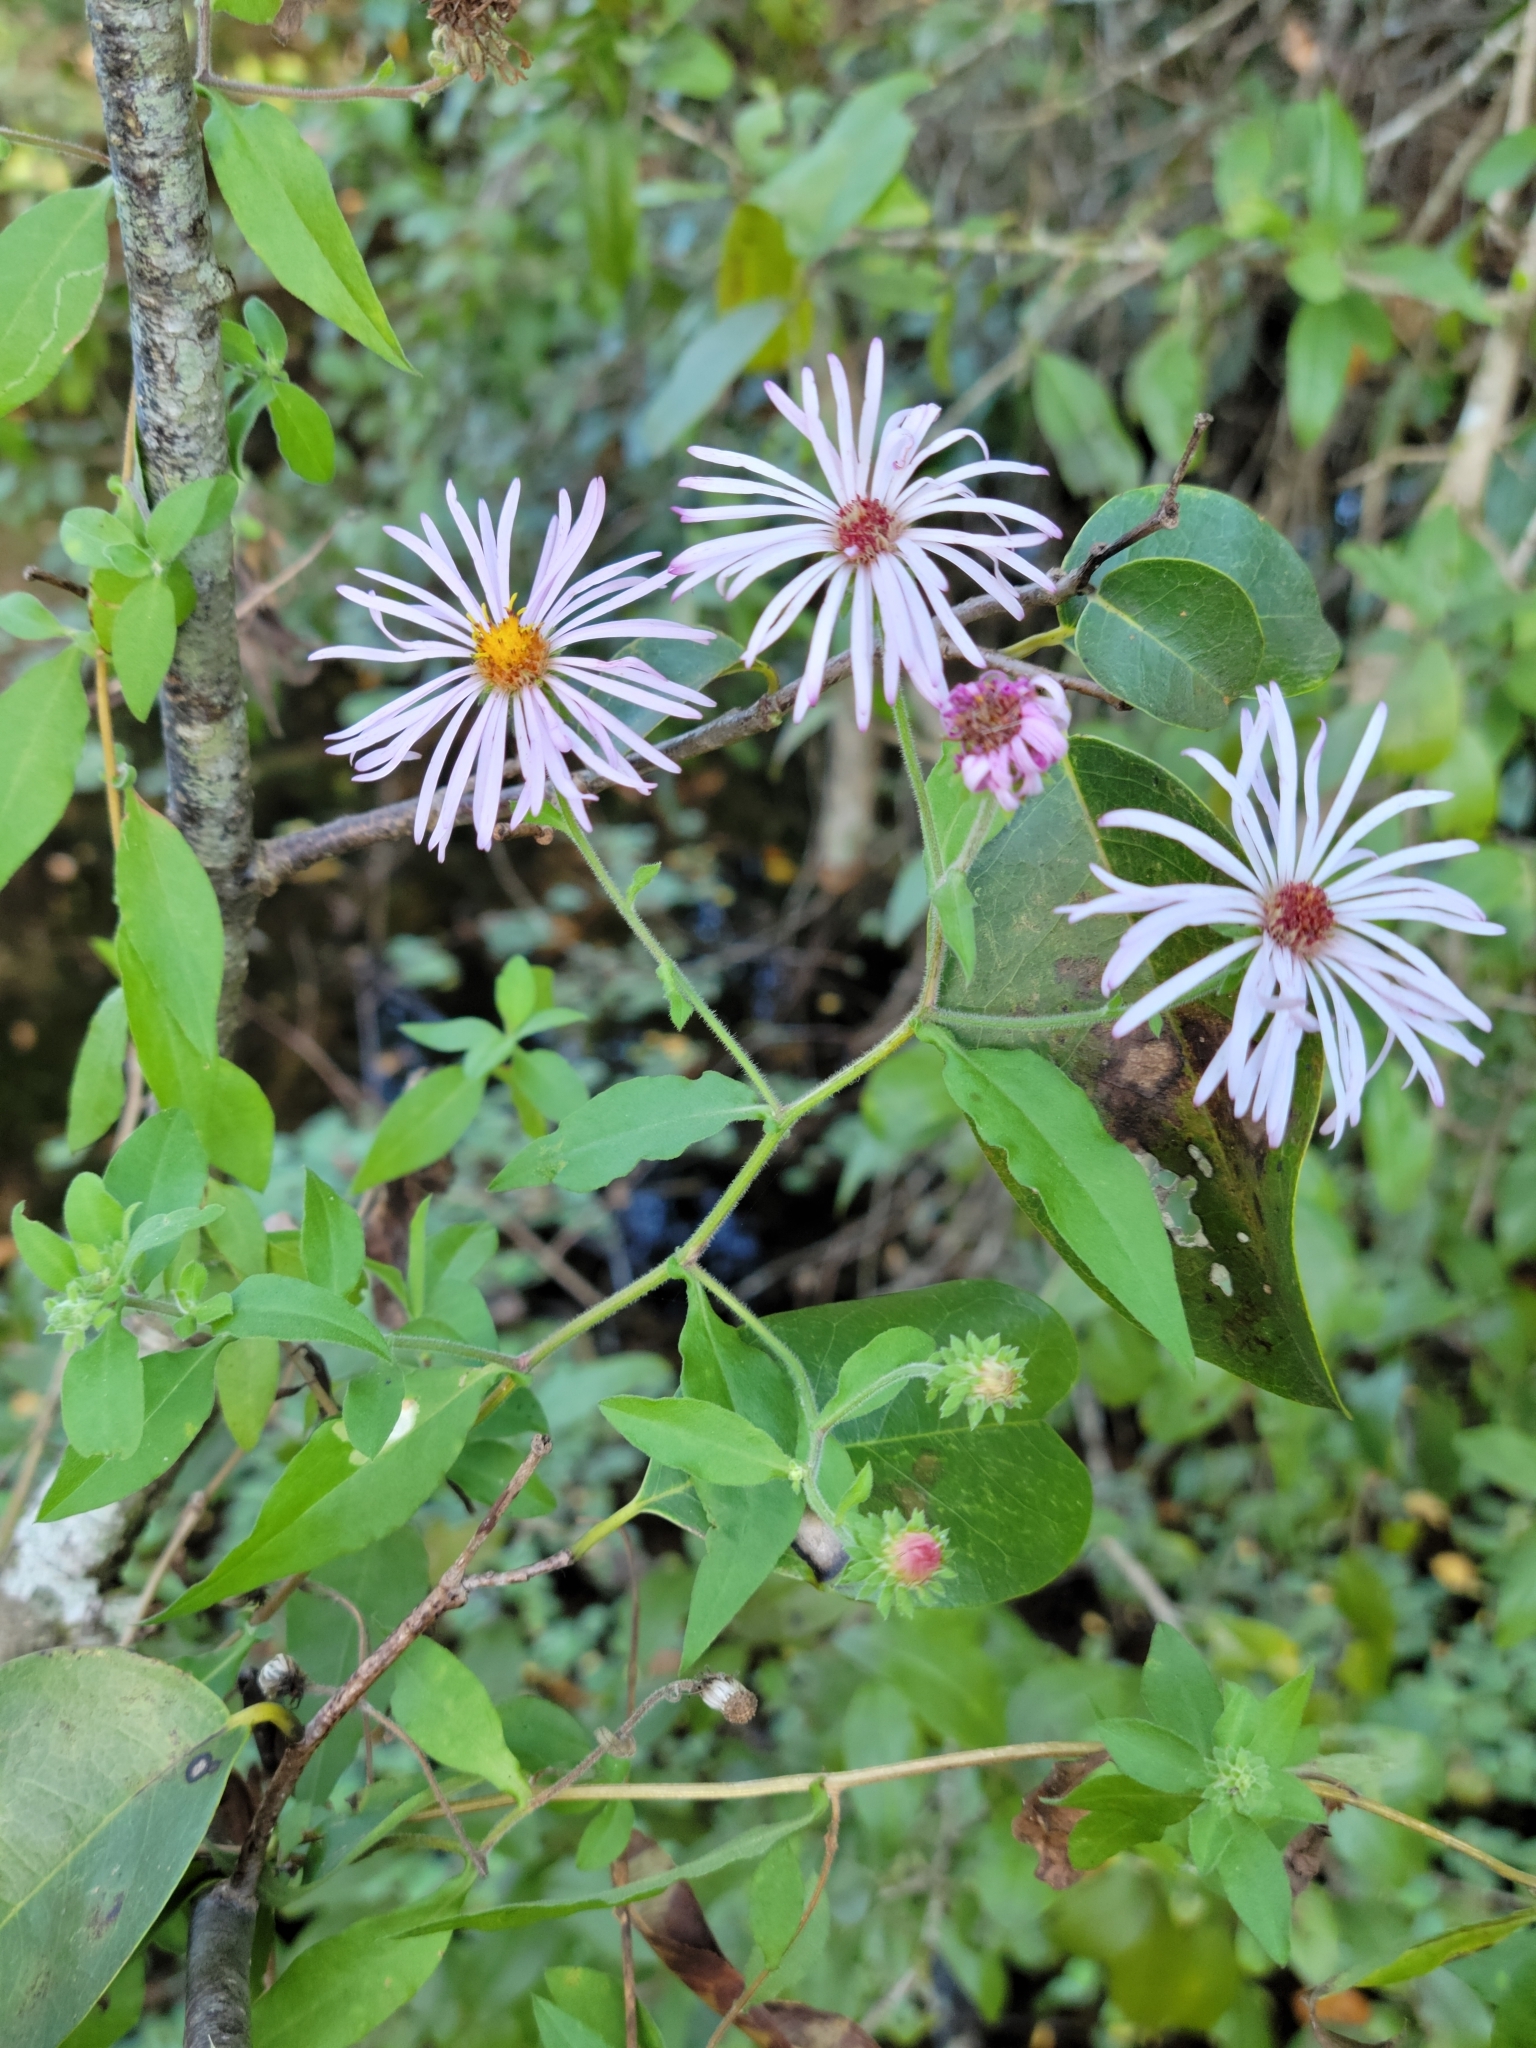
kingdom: Plantae
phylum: Tracheophyta
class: Magnoliopsida
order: Asterales
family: Asteraceae
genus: Ampelaster
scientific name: Ampelaster carolinianus
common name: Climbing aster
